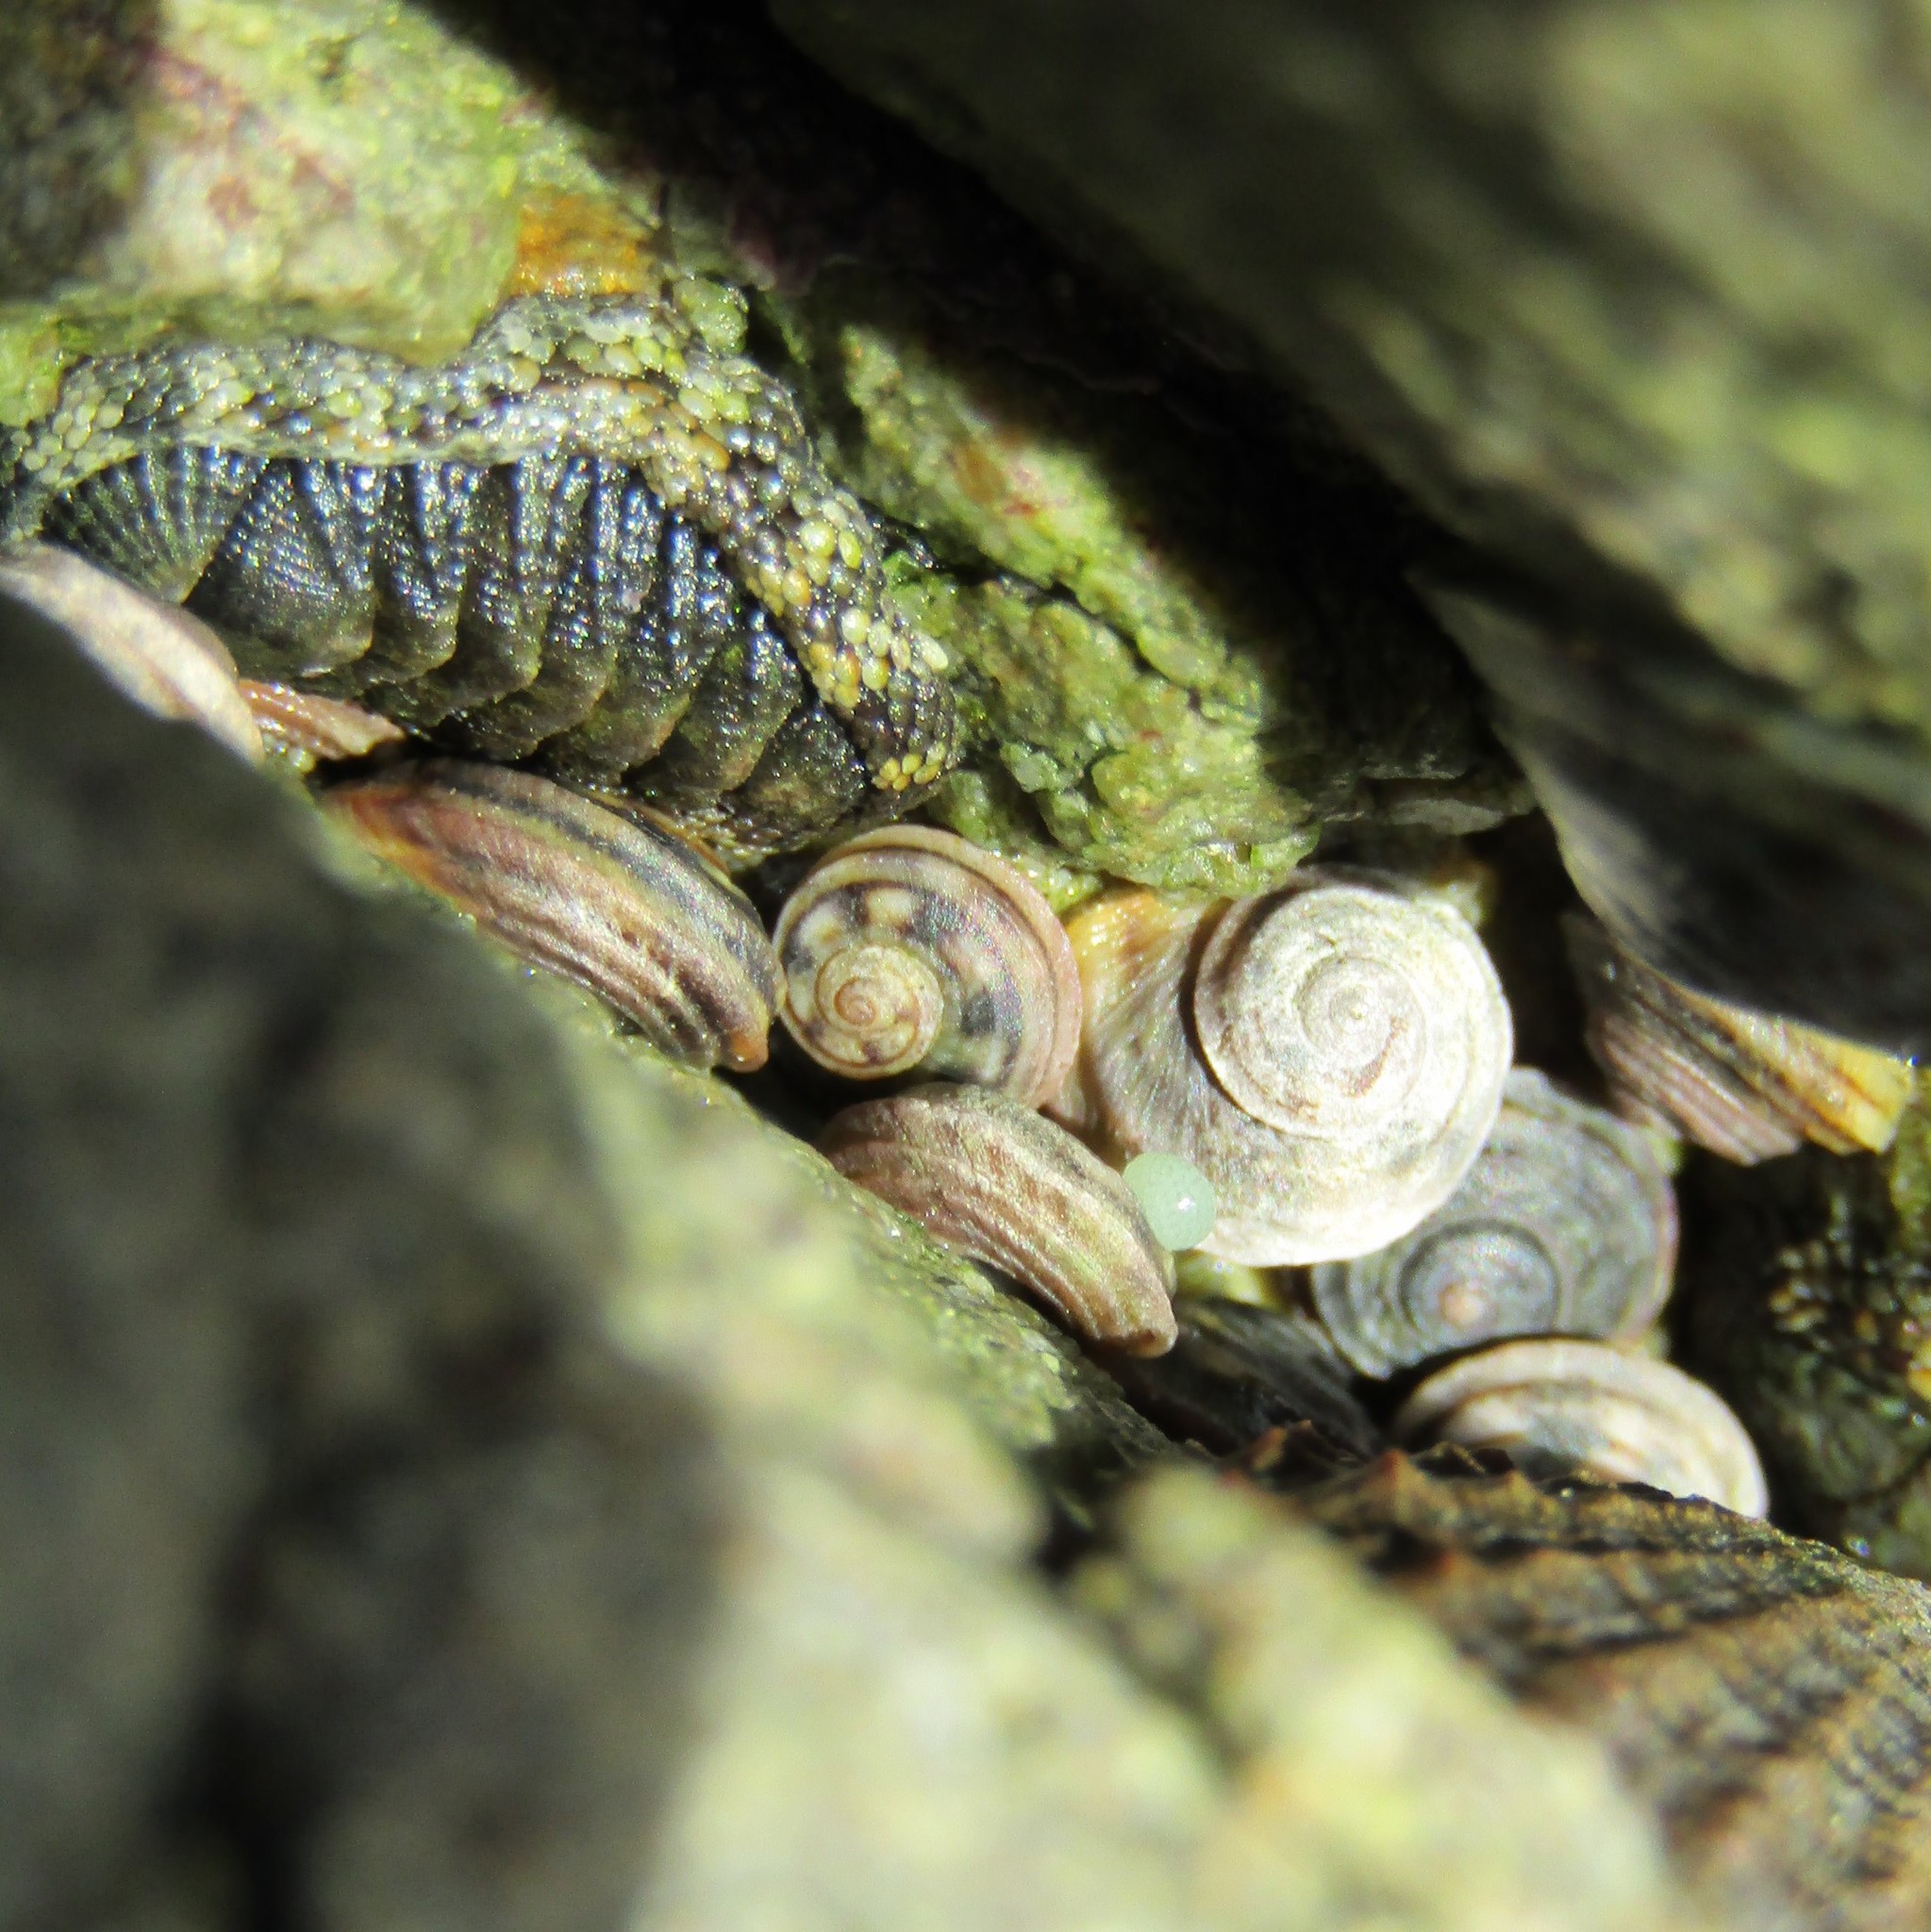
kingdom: Animalia
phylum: Mollusca
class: Gastropoda
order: Littorinimorpha
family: Littorinidae
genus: Risellopsis
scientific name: Risellopsis varia
